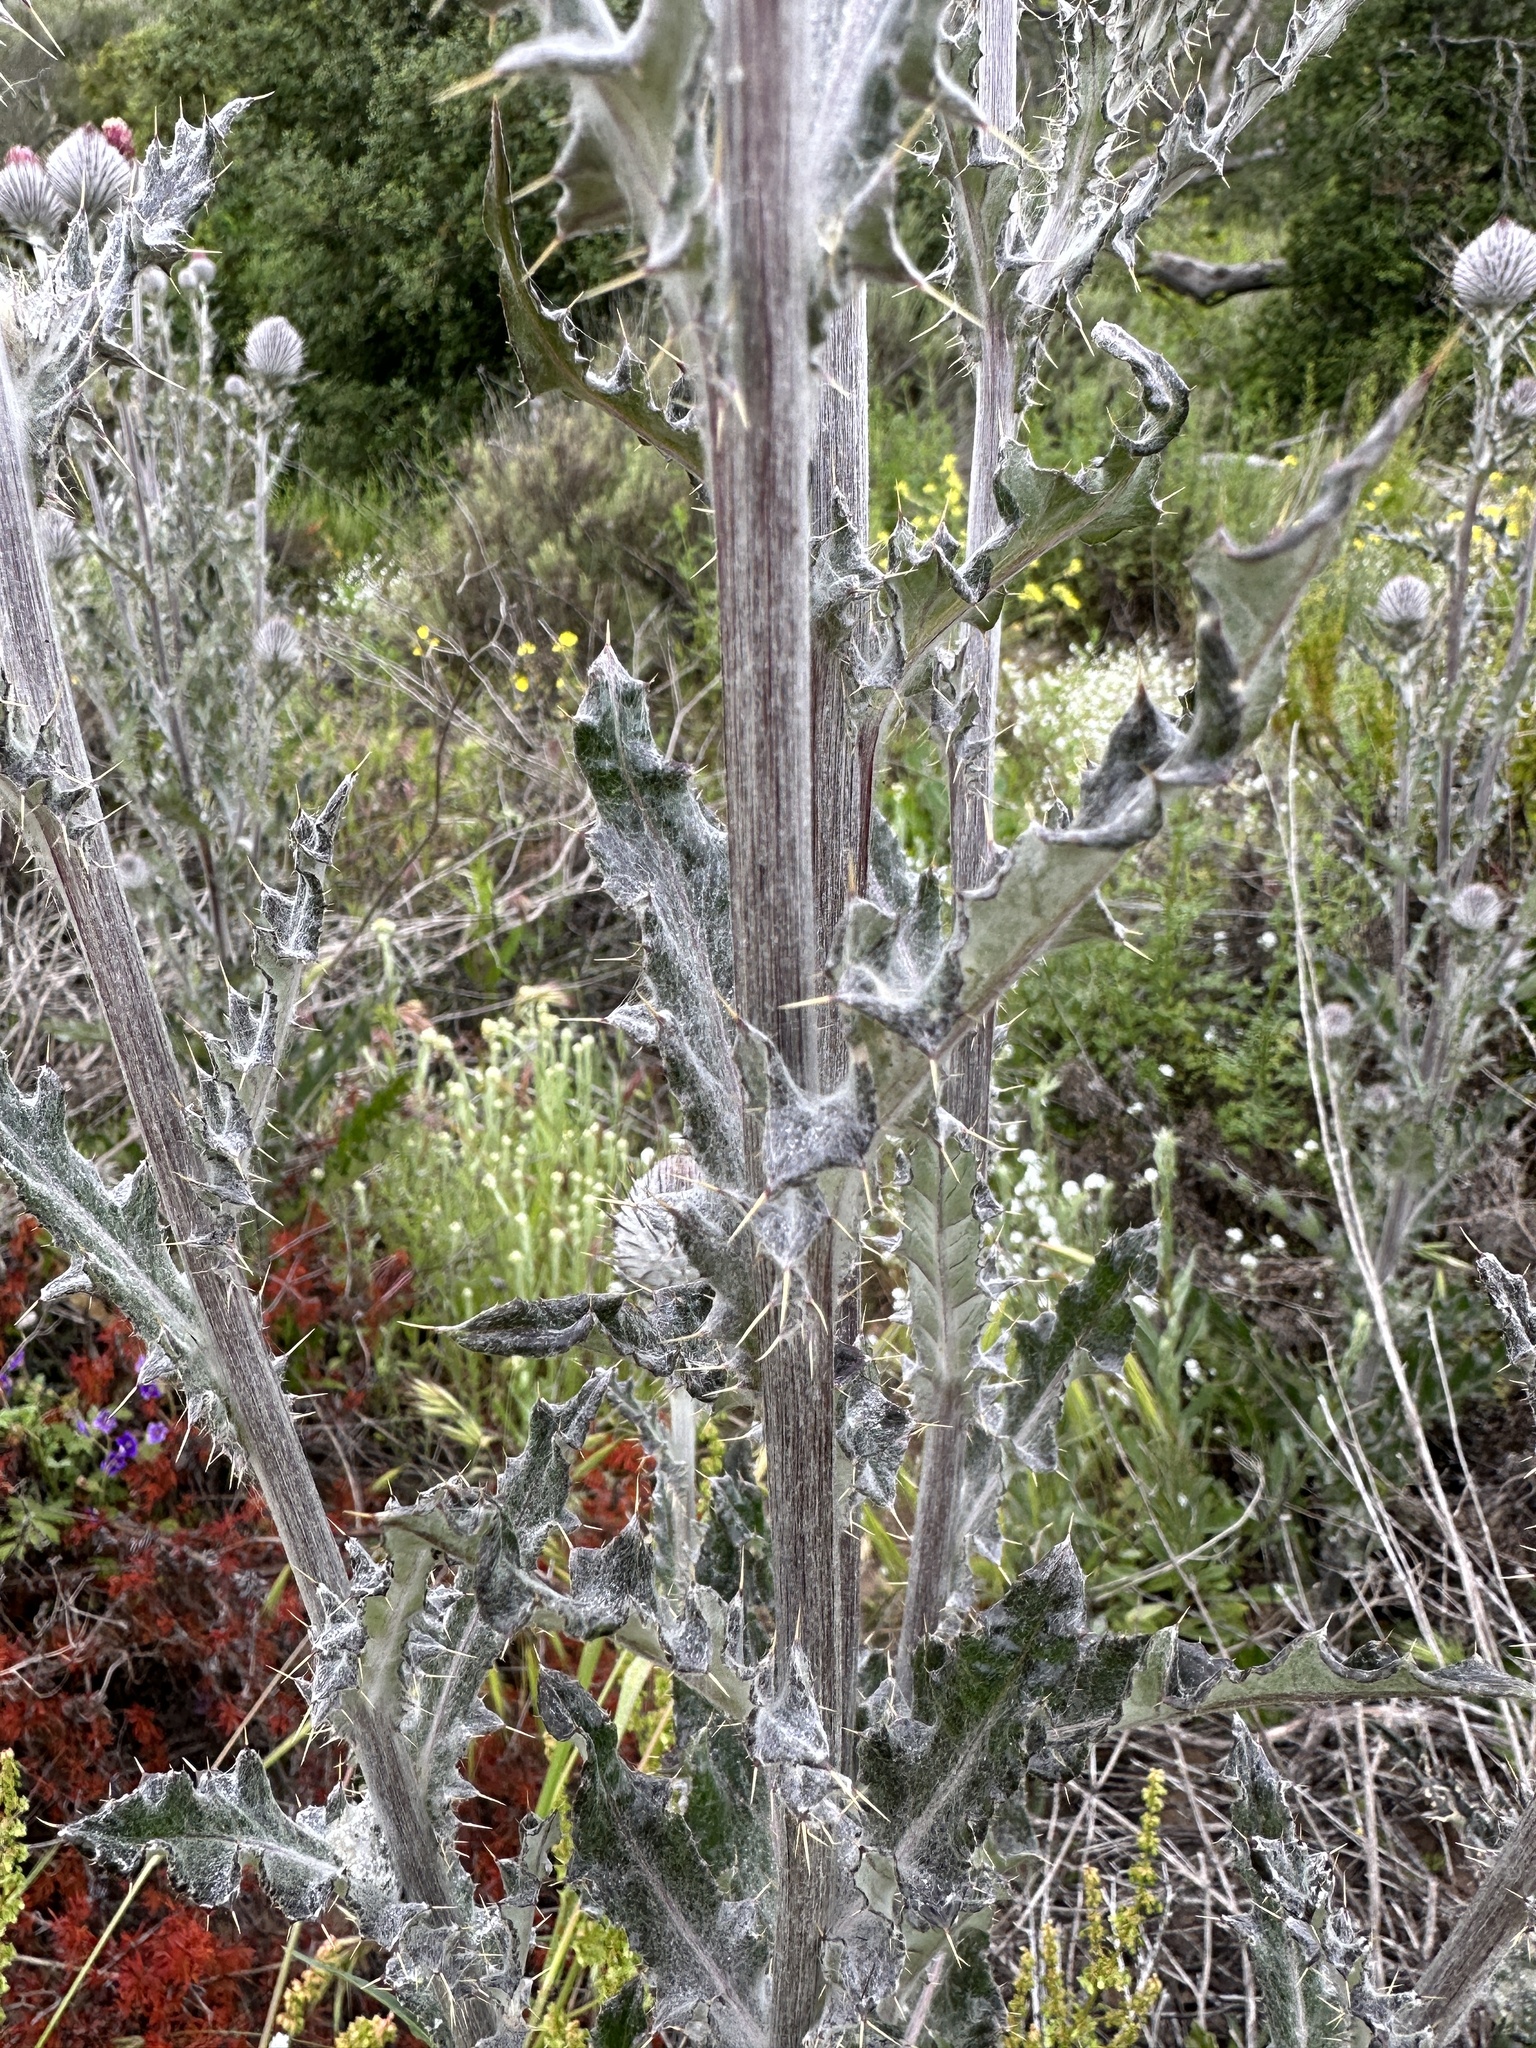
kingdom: Plantae
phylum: Tracheophyta
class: Magnoliopsida
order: Asterales
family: Asteraceae
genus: Cirsium
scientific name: Cirsium occidentale
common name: Western thistle
